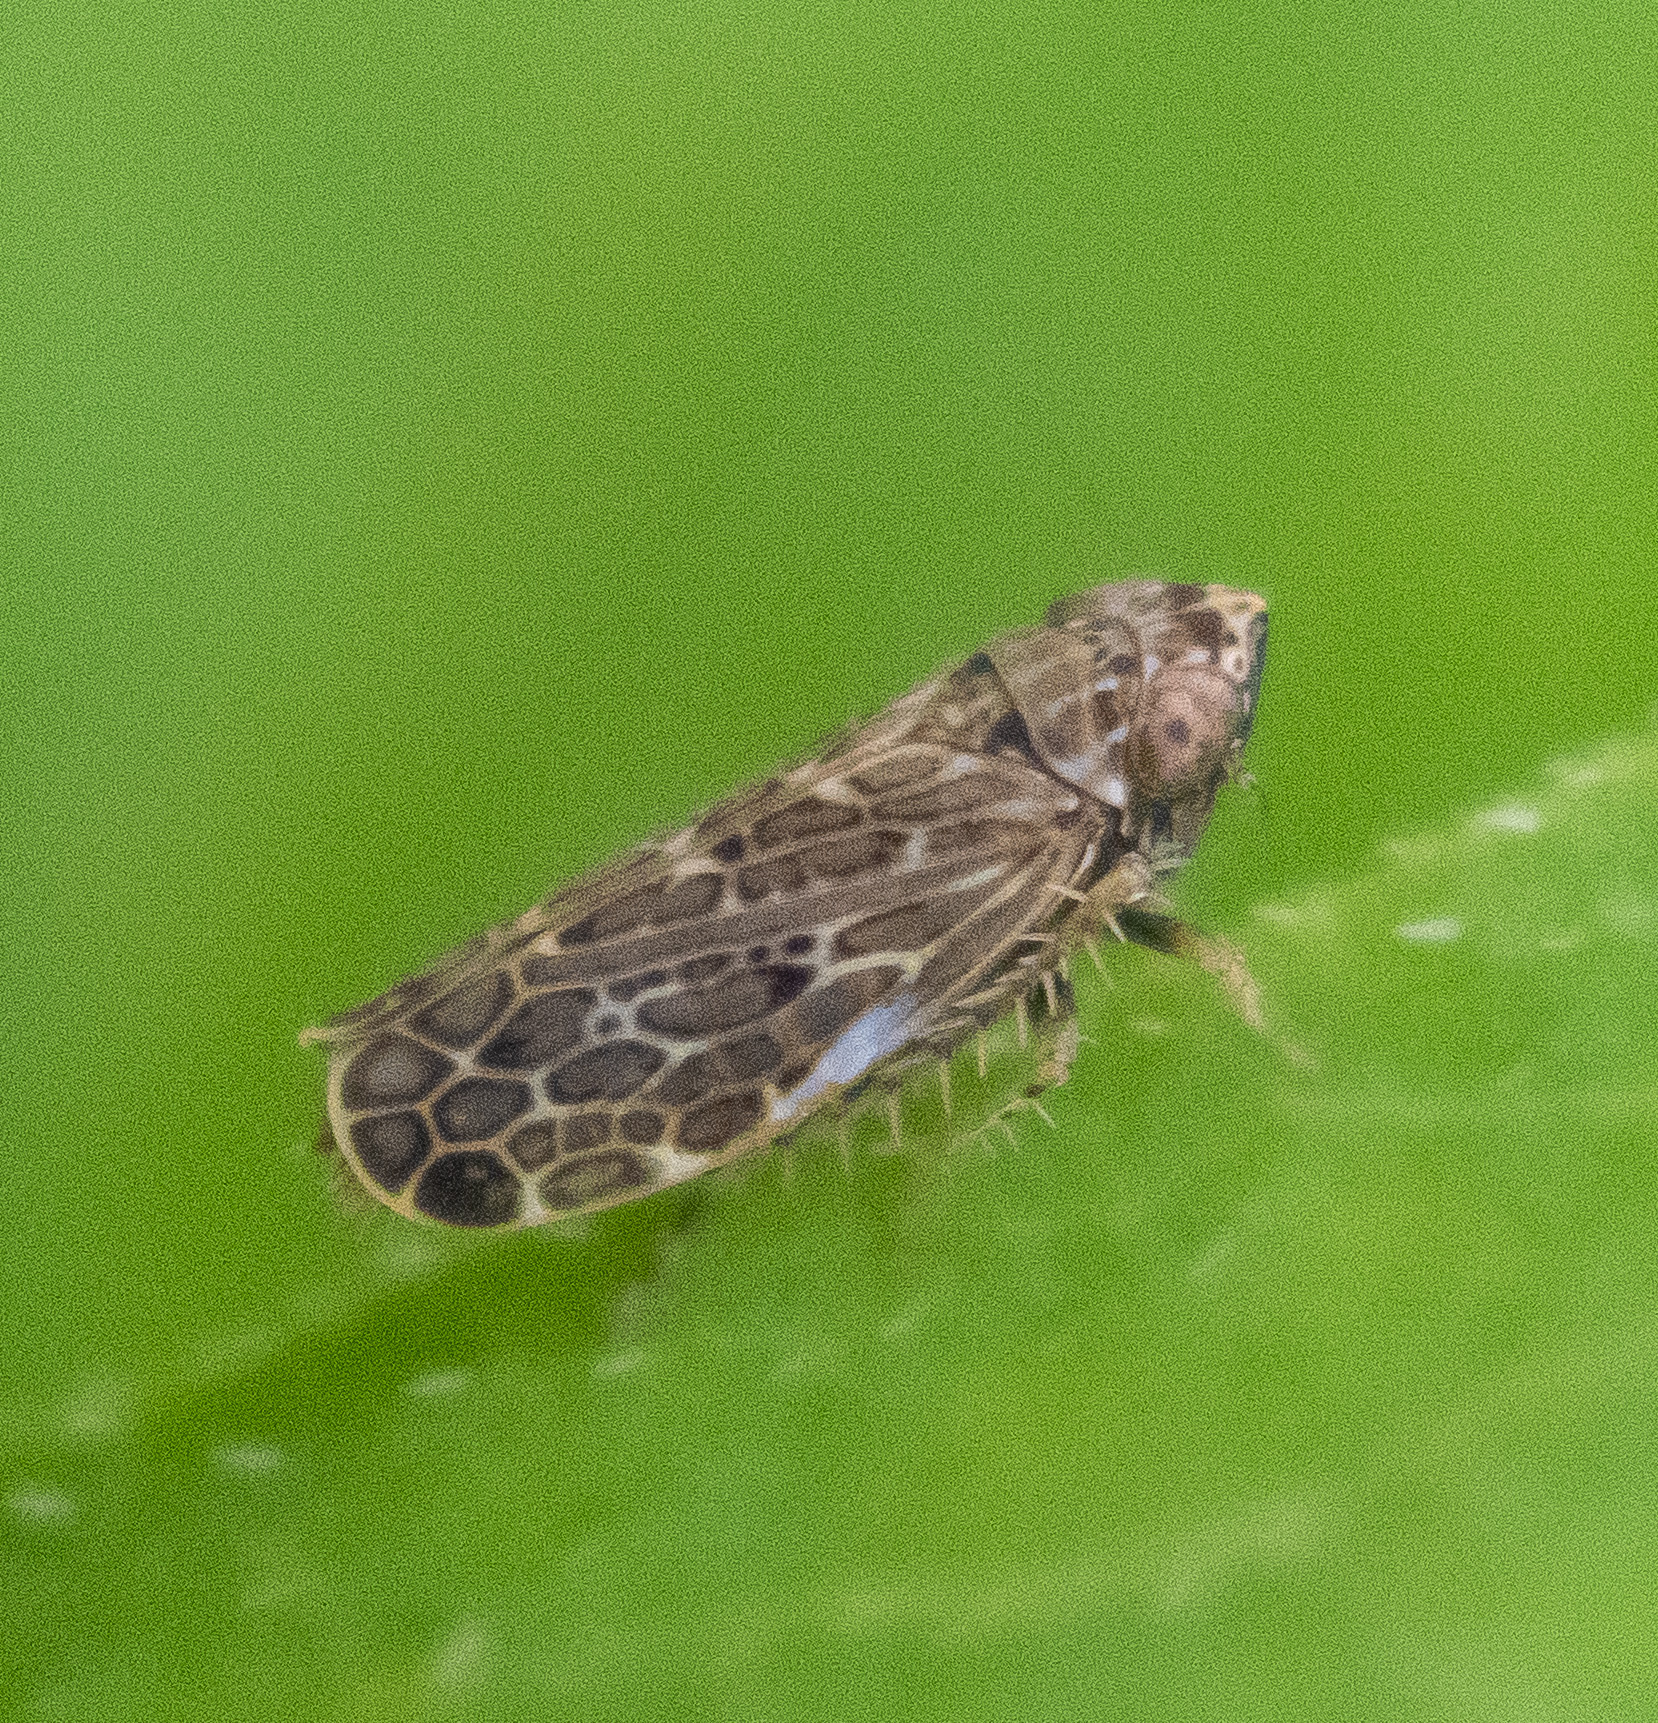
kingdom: Animalia
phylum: Arthropoda
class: Insecta
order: Hemiptera
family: Cicadellidae
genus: Polyamia
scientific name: Polyamia weedi
